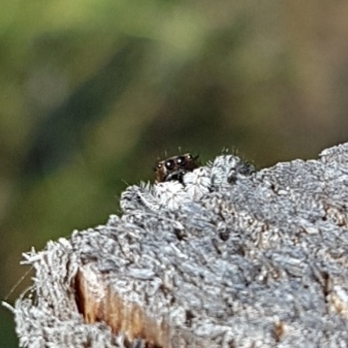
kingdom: Animalia
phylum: Arthropoda
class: Arachnida
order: Araneae
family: Salticidae
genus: Menemerus
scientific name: Menemerus taeniatus
